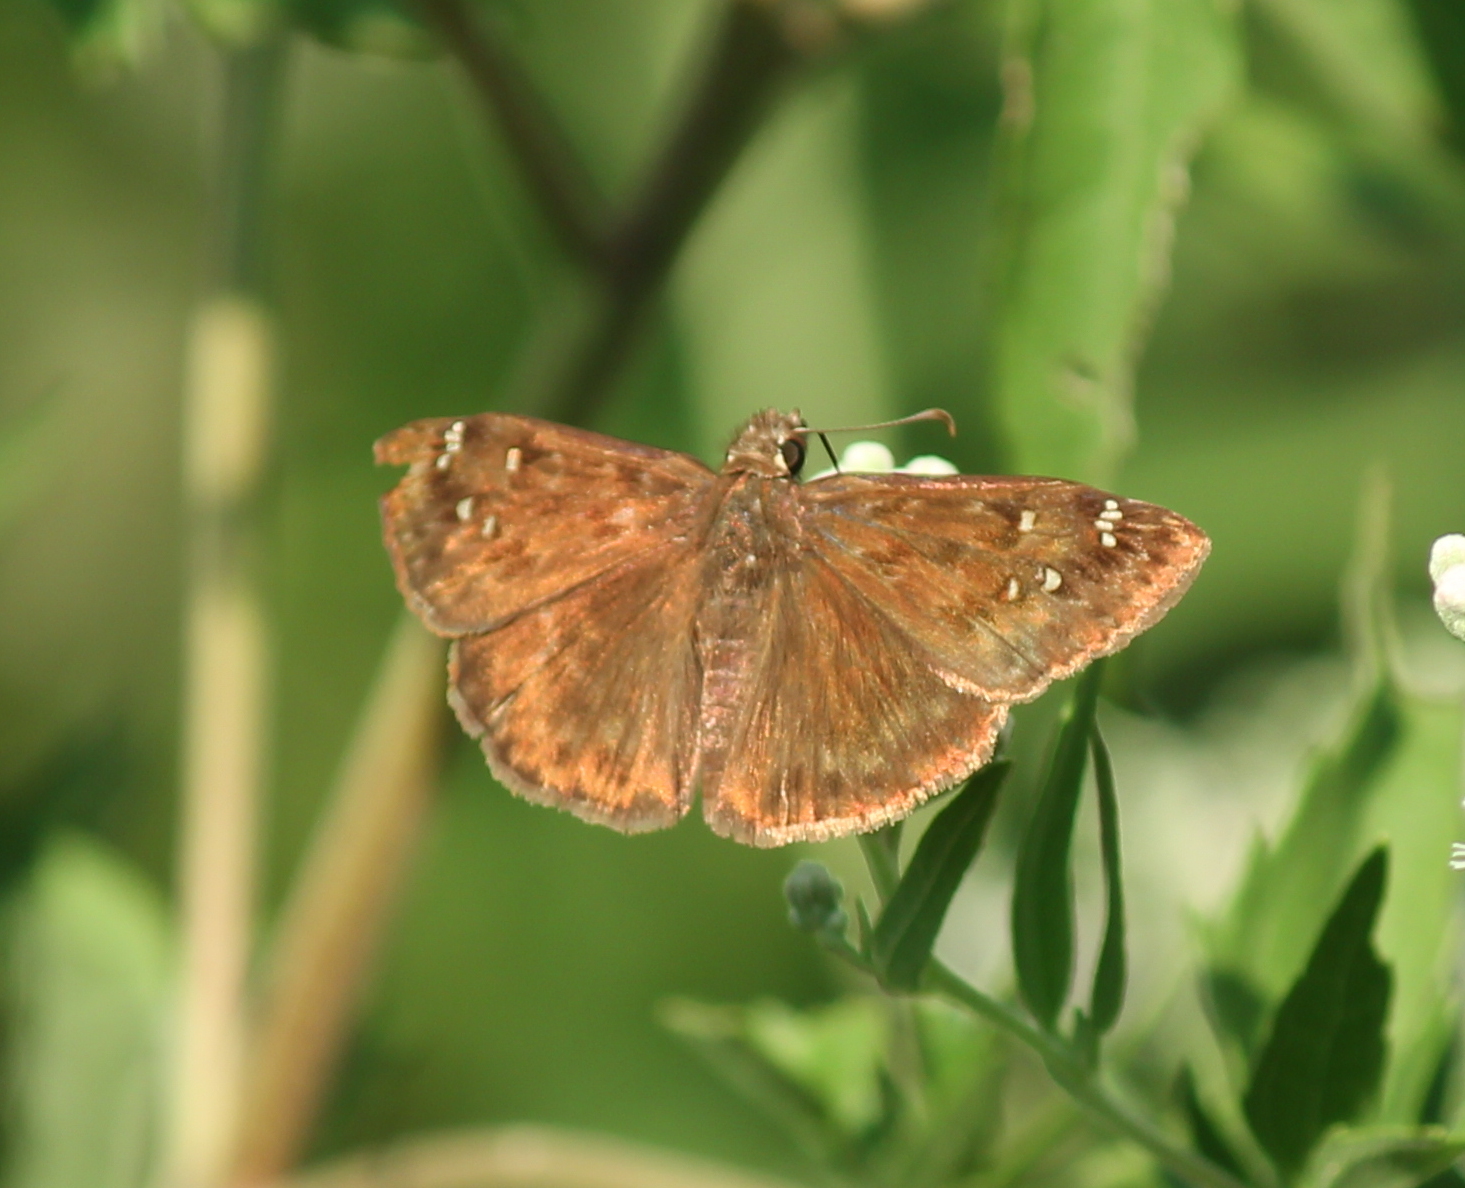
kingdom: Animalia
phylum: Arthropoda
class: Insecta
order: Lepidoptera
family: Hesperiidae
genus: Pholisora
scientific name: Pholisora catullus
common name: Common sootywing
